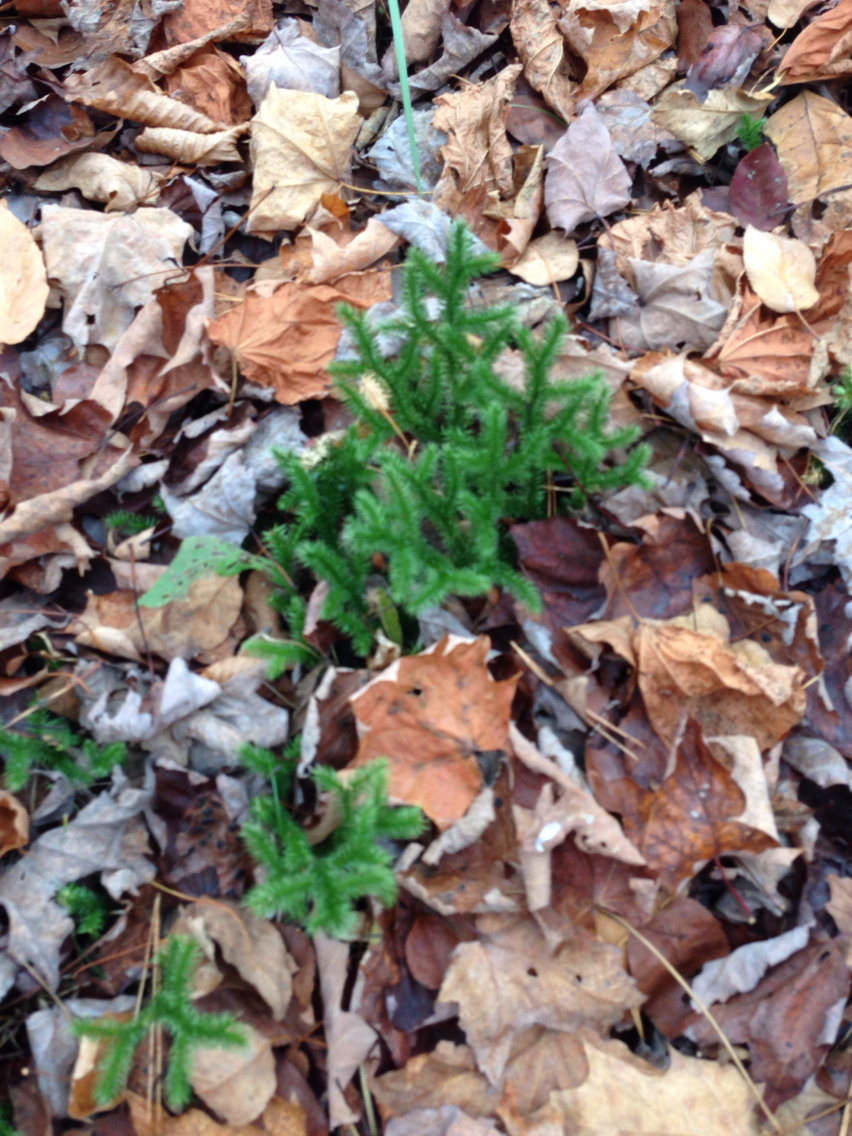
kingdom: Plantae
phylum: Tracheophyta
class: Lycopodiopsida
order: Lycopodiales
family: Lycopodiaceae
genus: Lycopodium
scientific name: Lycopodium clavatum
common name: Stag's-horn clubmoss
